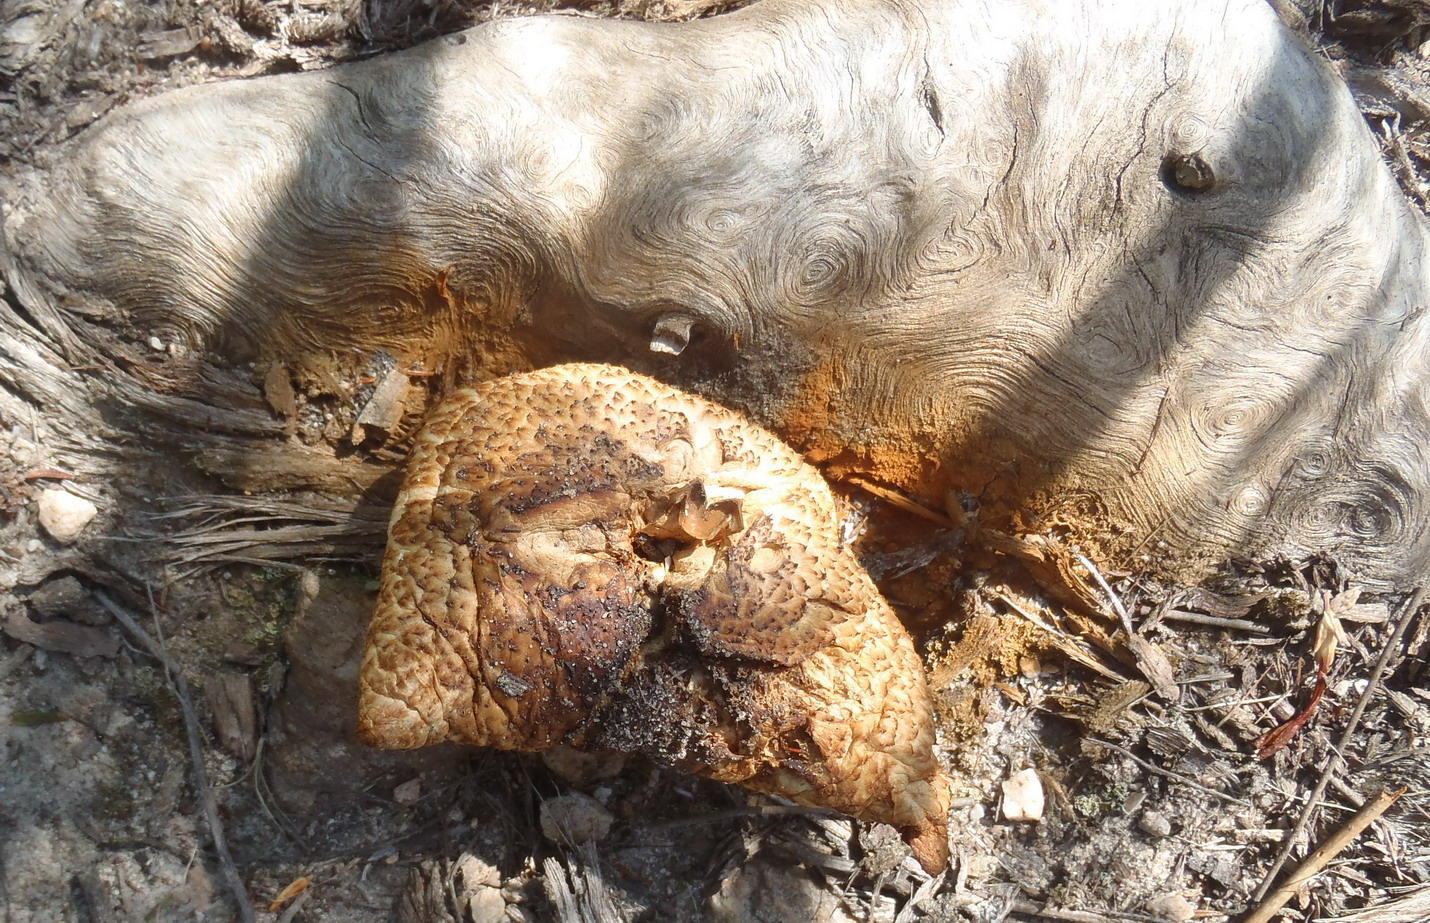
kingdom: Fungi
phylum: Basidiomycota
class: Agaricomycetes
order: Agaricales
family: Hymenogastraceae
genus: Gymnopilus
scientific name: Gymnopilus junonius
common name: Spectacular rustgill
